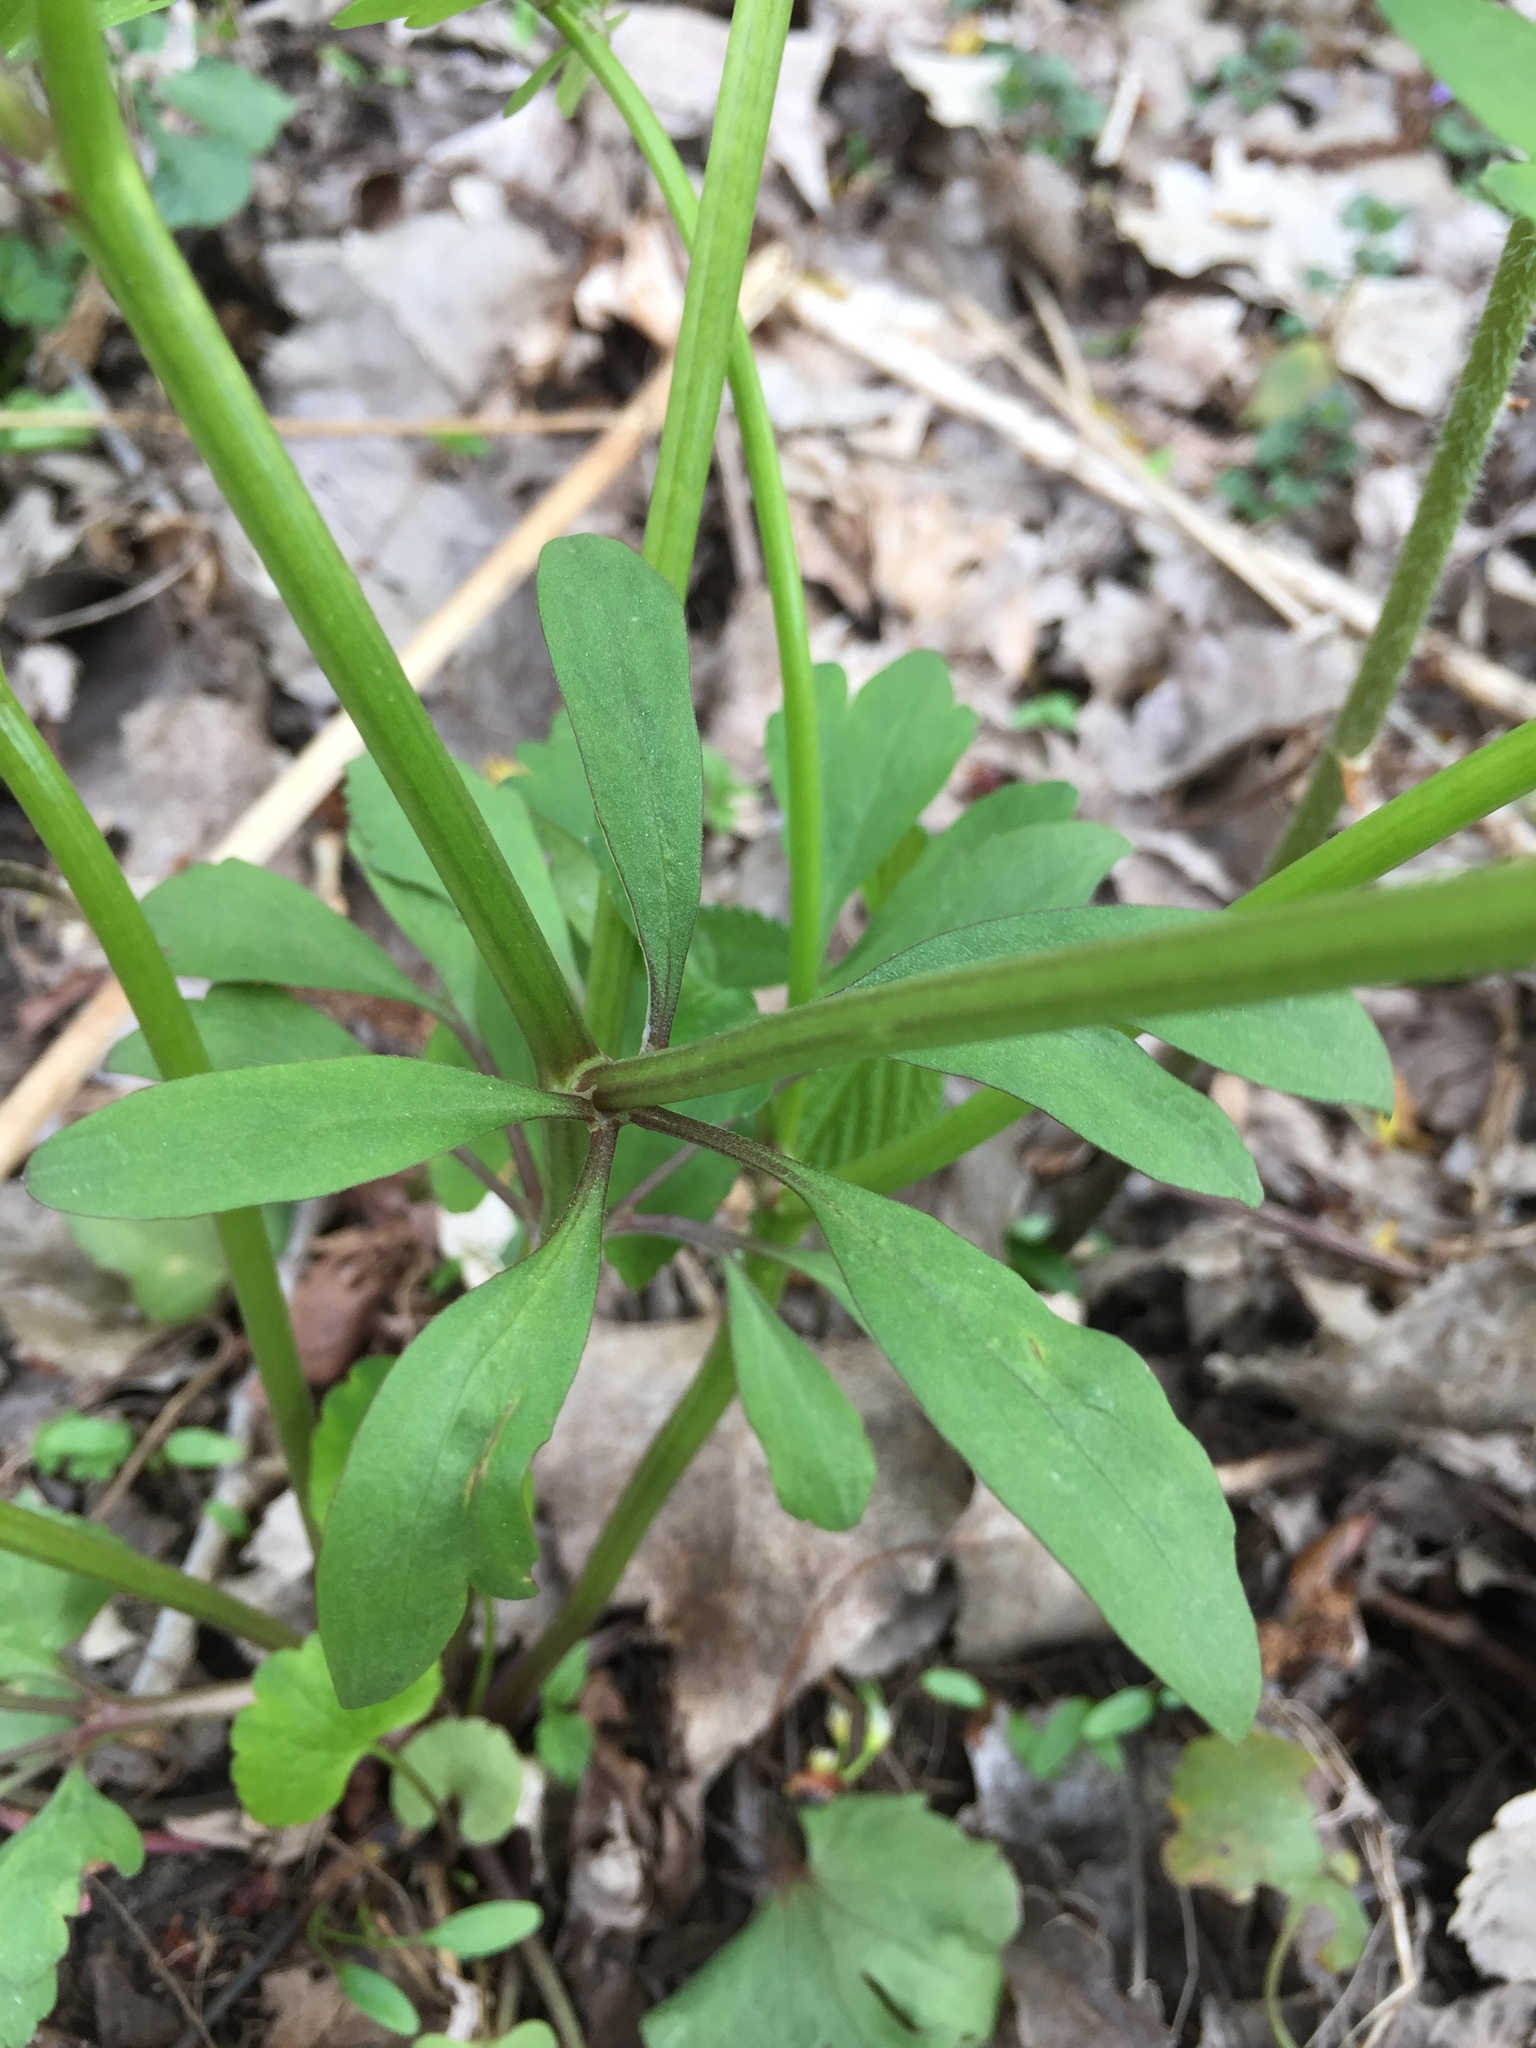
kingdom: Plantae
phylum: Tracheophyta
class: Magnoliopsida
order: Ranunculales
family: Ranunculaceae
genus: Ranunculus
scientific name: Ranunculus abortivus
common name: Early wood buttercup
